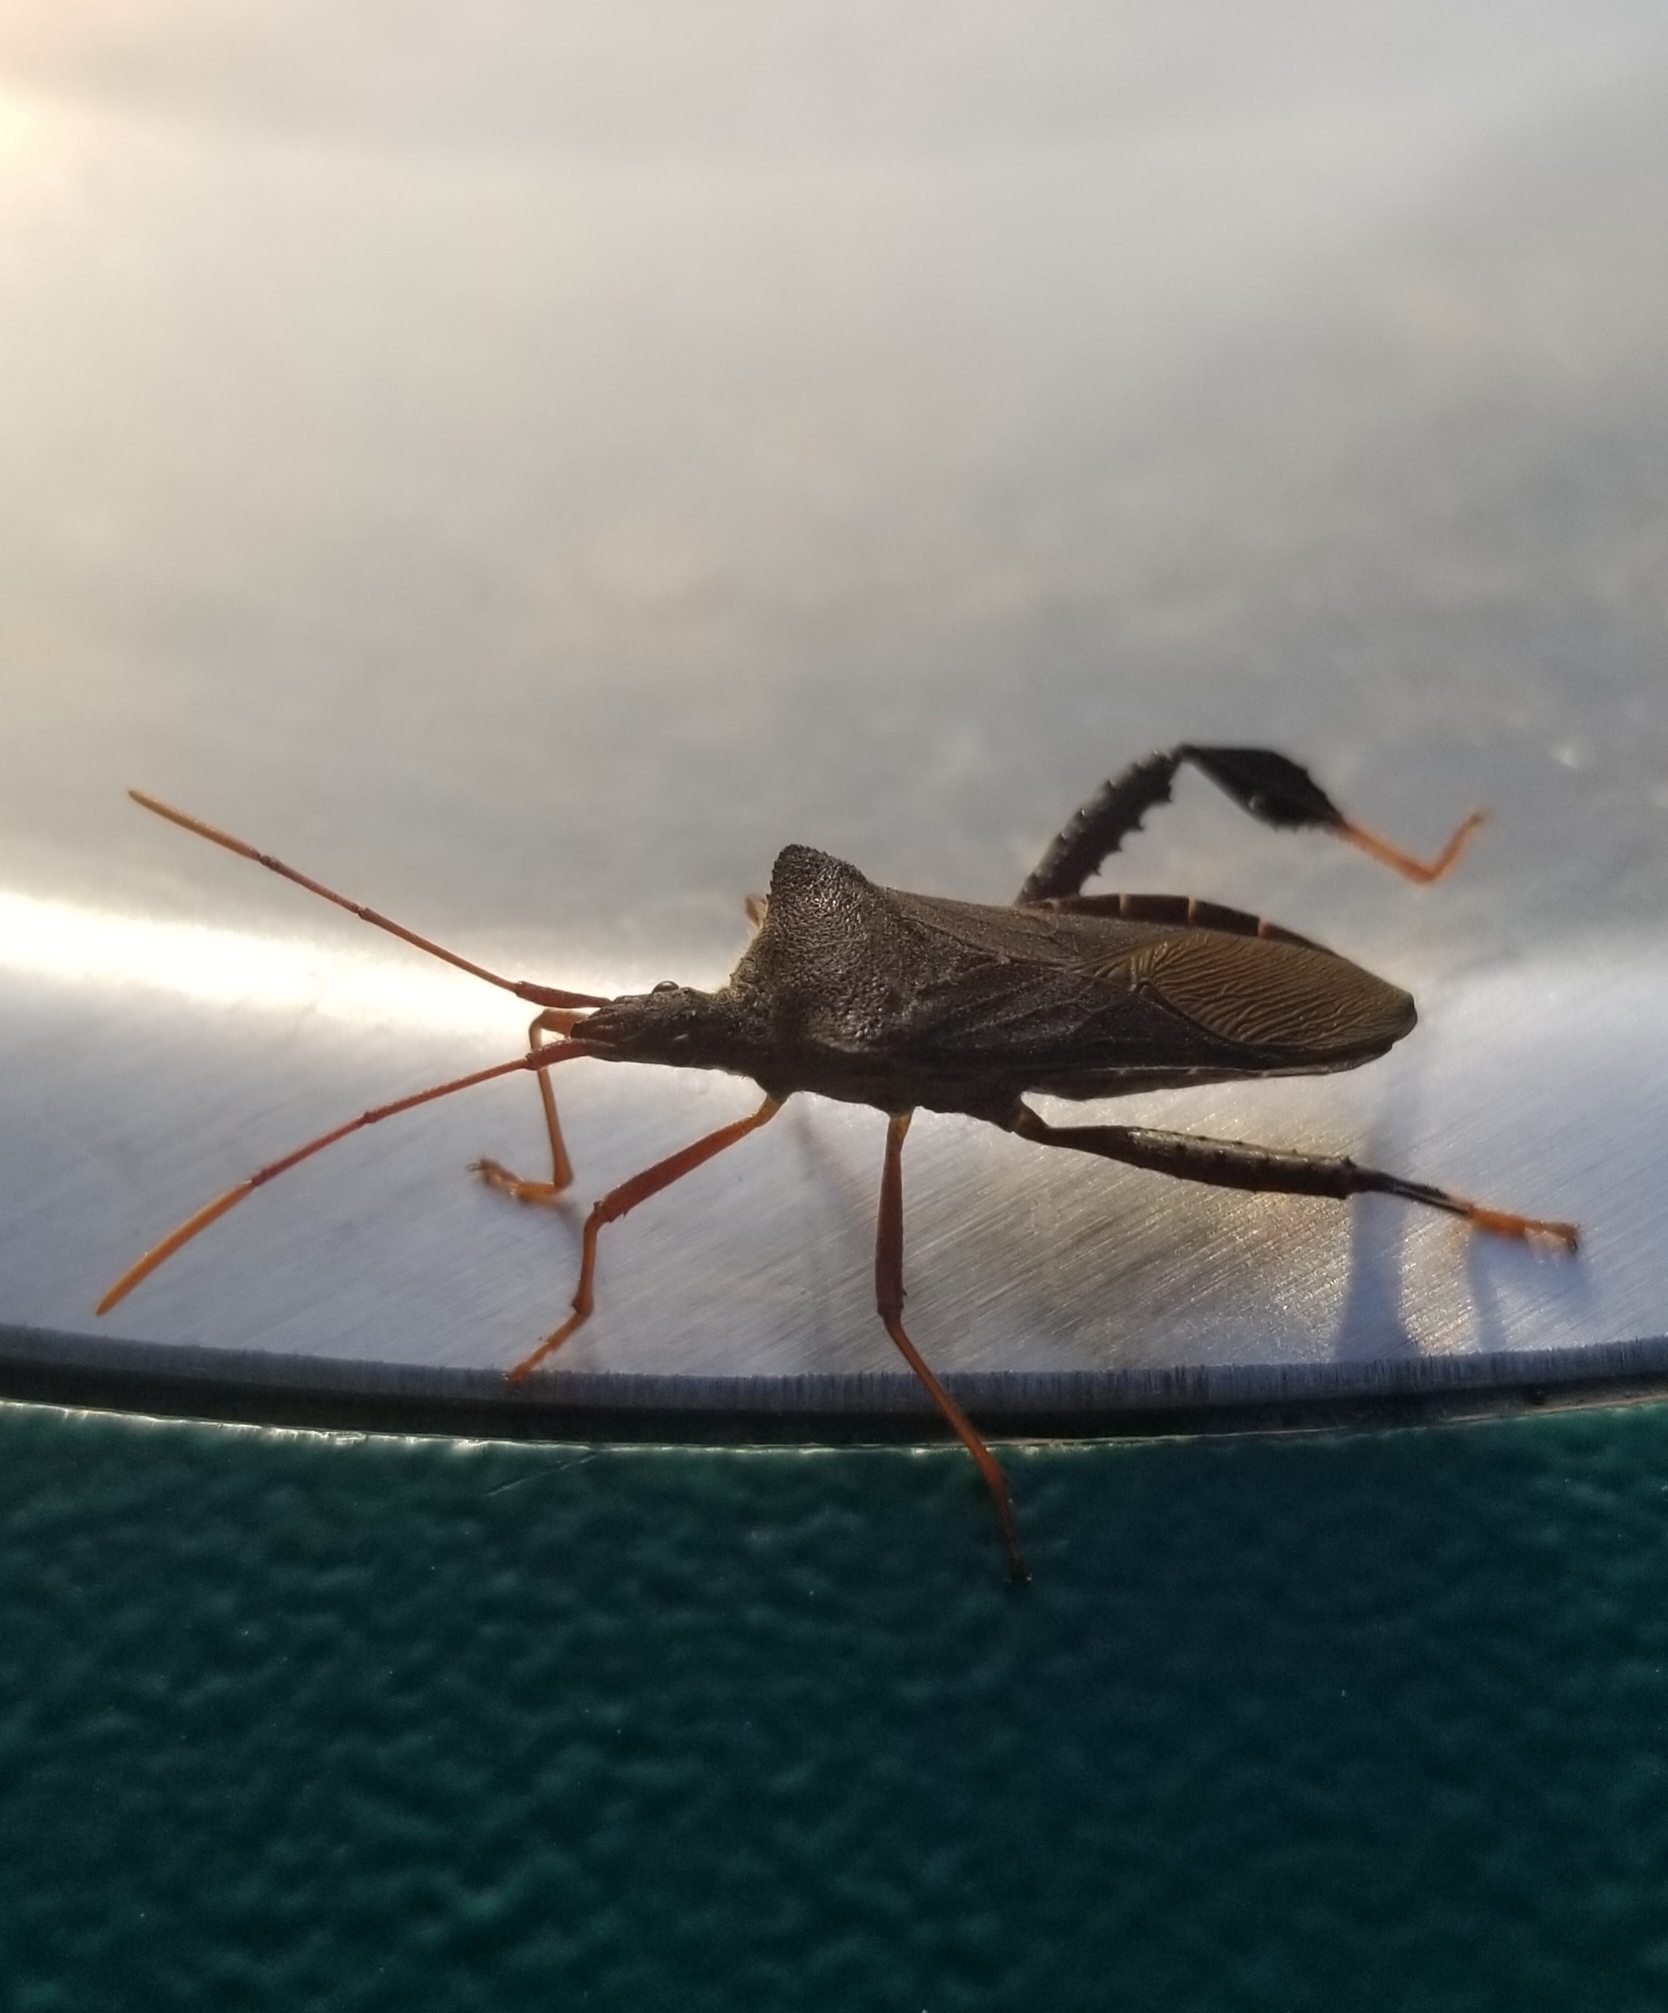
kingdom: Animalia
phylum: Arthropoda
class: Insecta
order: Hemiptera
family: Coreidae
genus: Leptoglossus
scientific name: Leptoglossus fulvicornis
